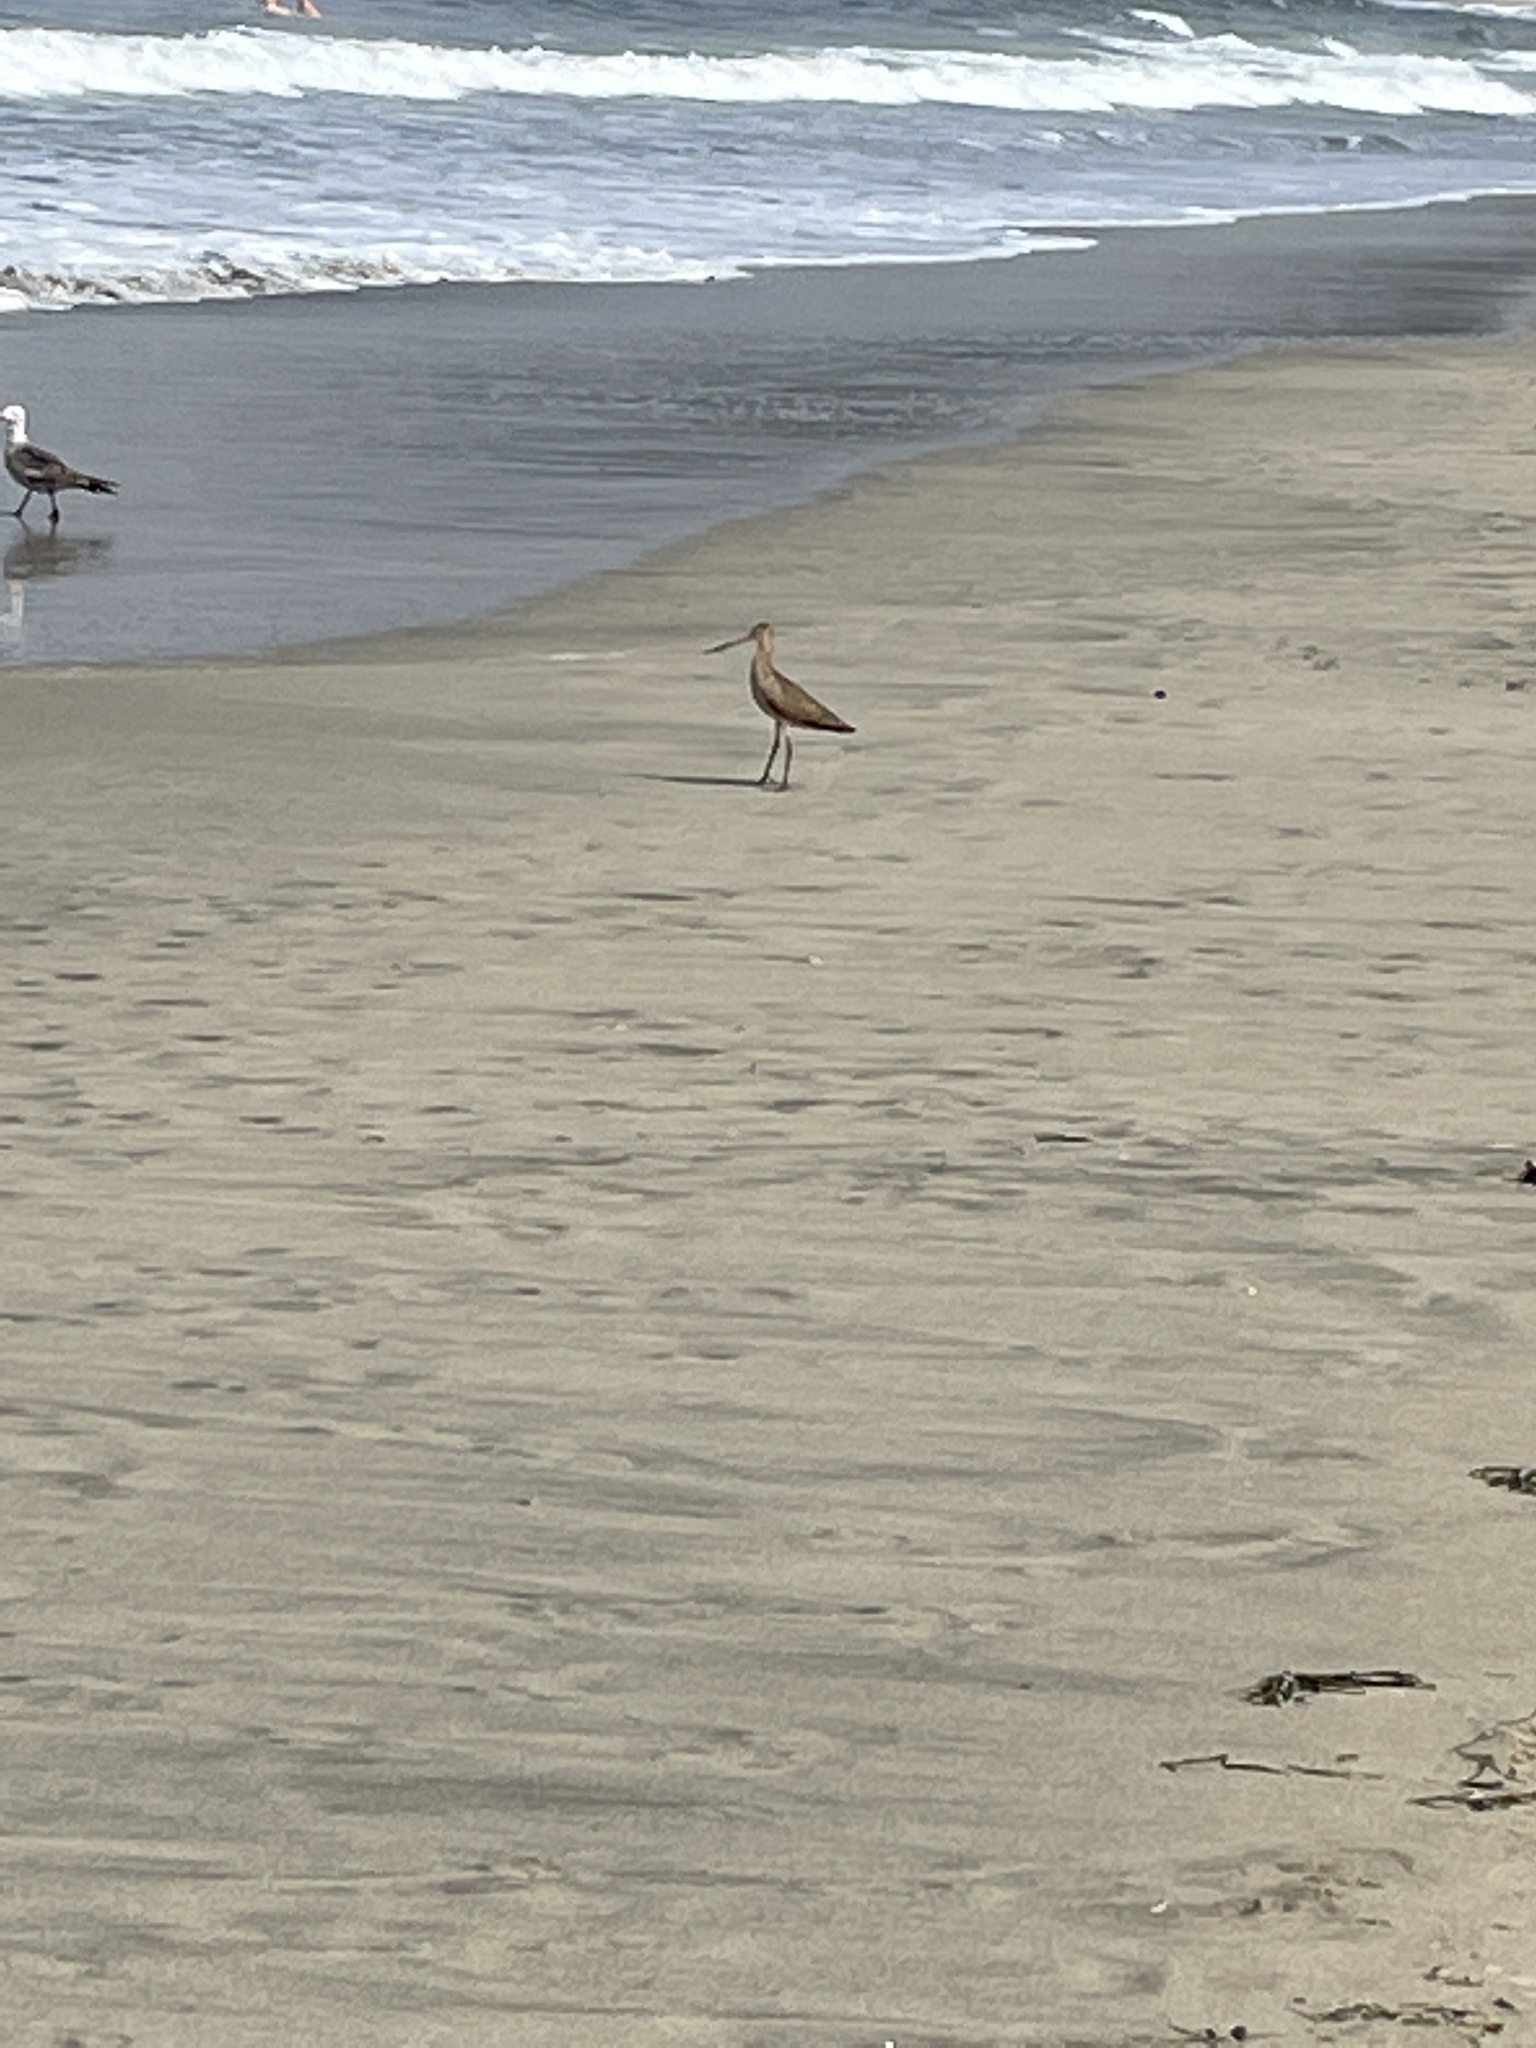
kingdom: Animalia
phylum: Chordata
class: Aves
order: Charadriiformes
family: Scolopacidae
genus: Limosa
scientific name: Limosa fedoa
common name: Marbled godwit
